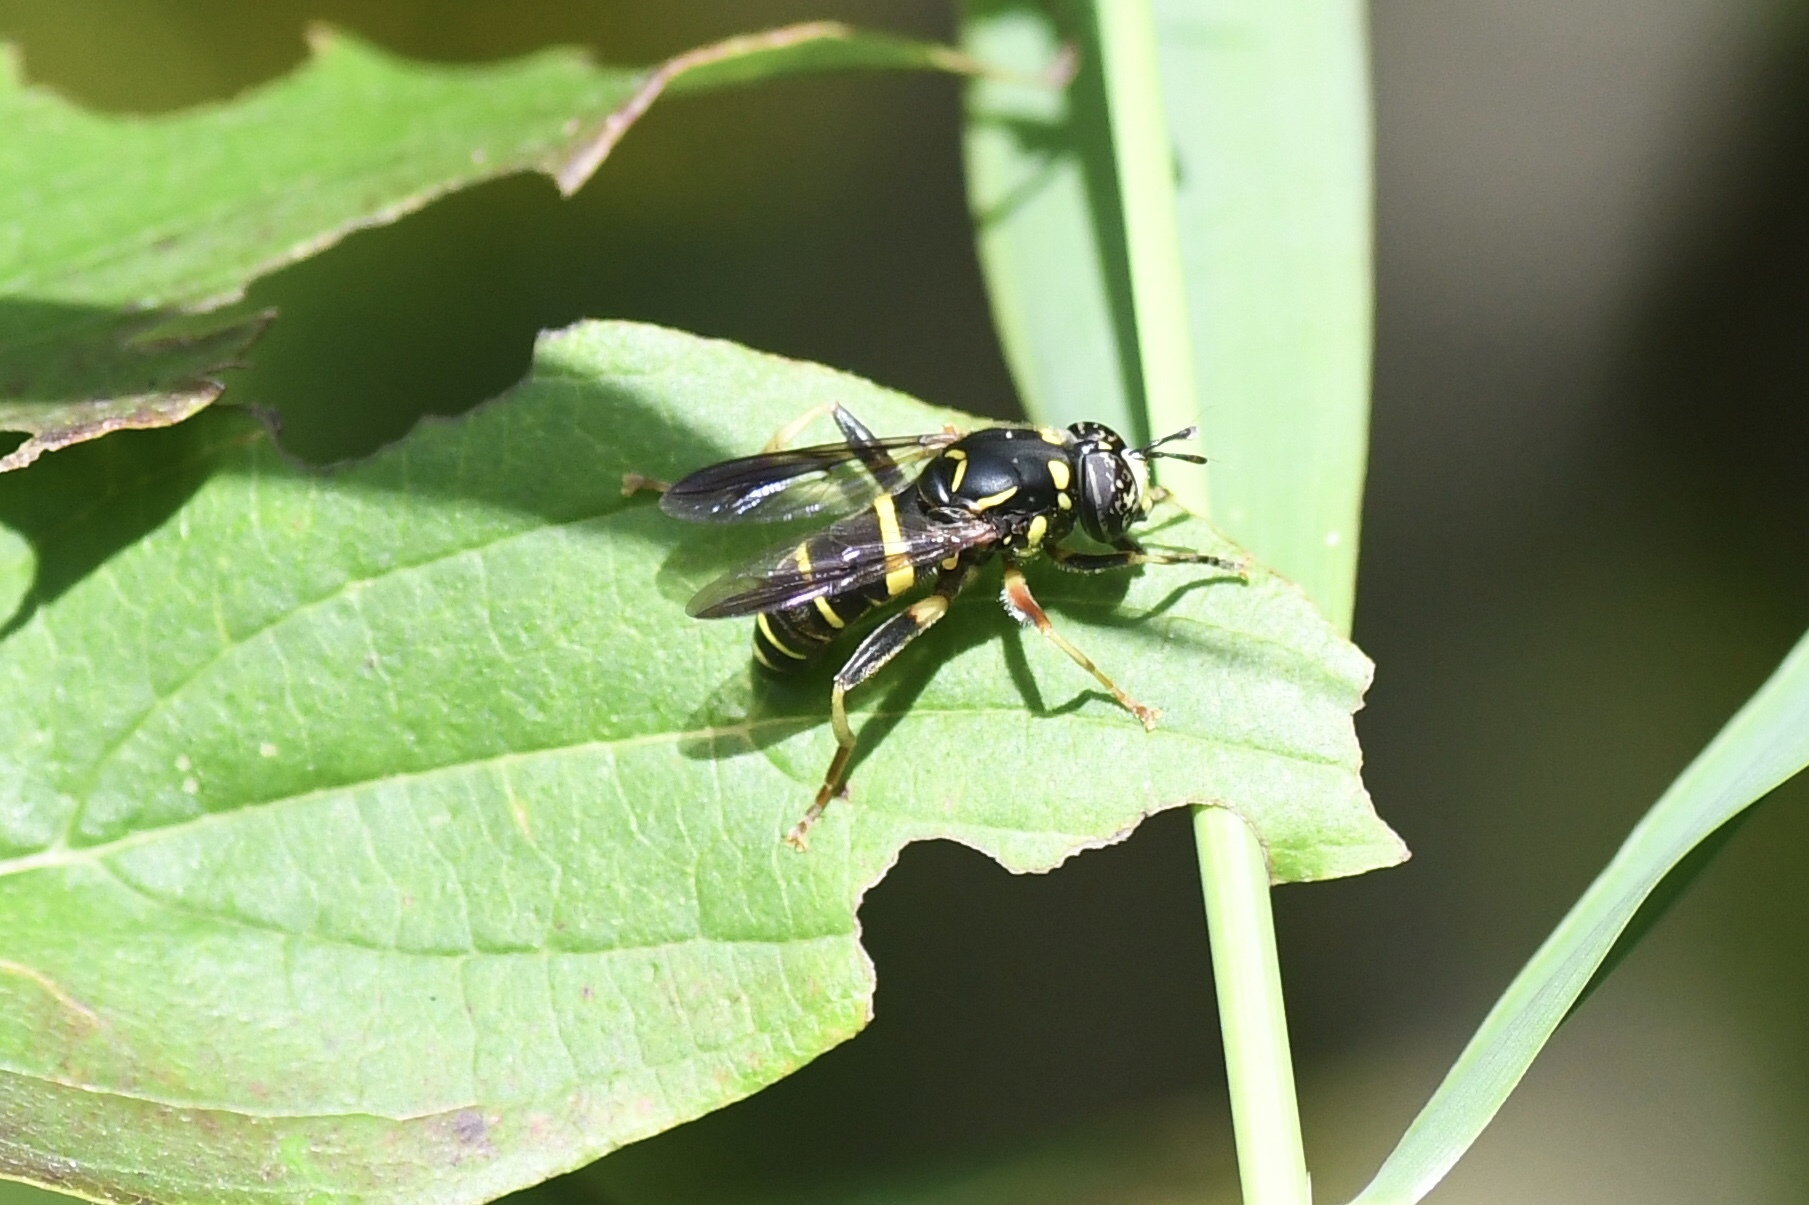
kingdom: Animalia
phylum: Arthropoda
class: Insecta
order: Diptera
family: Syrphidae
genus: Spilomyia
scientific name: Spilomyia sayi
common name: Four-lined hornet fly
